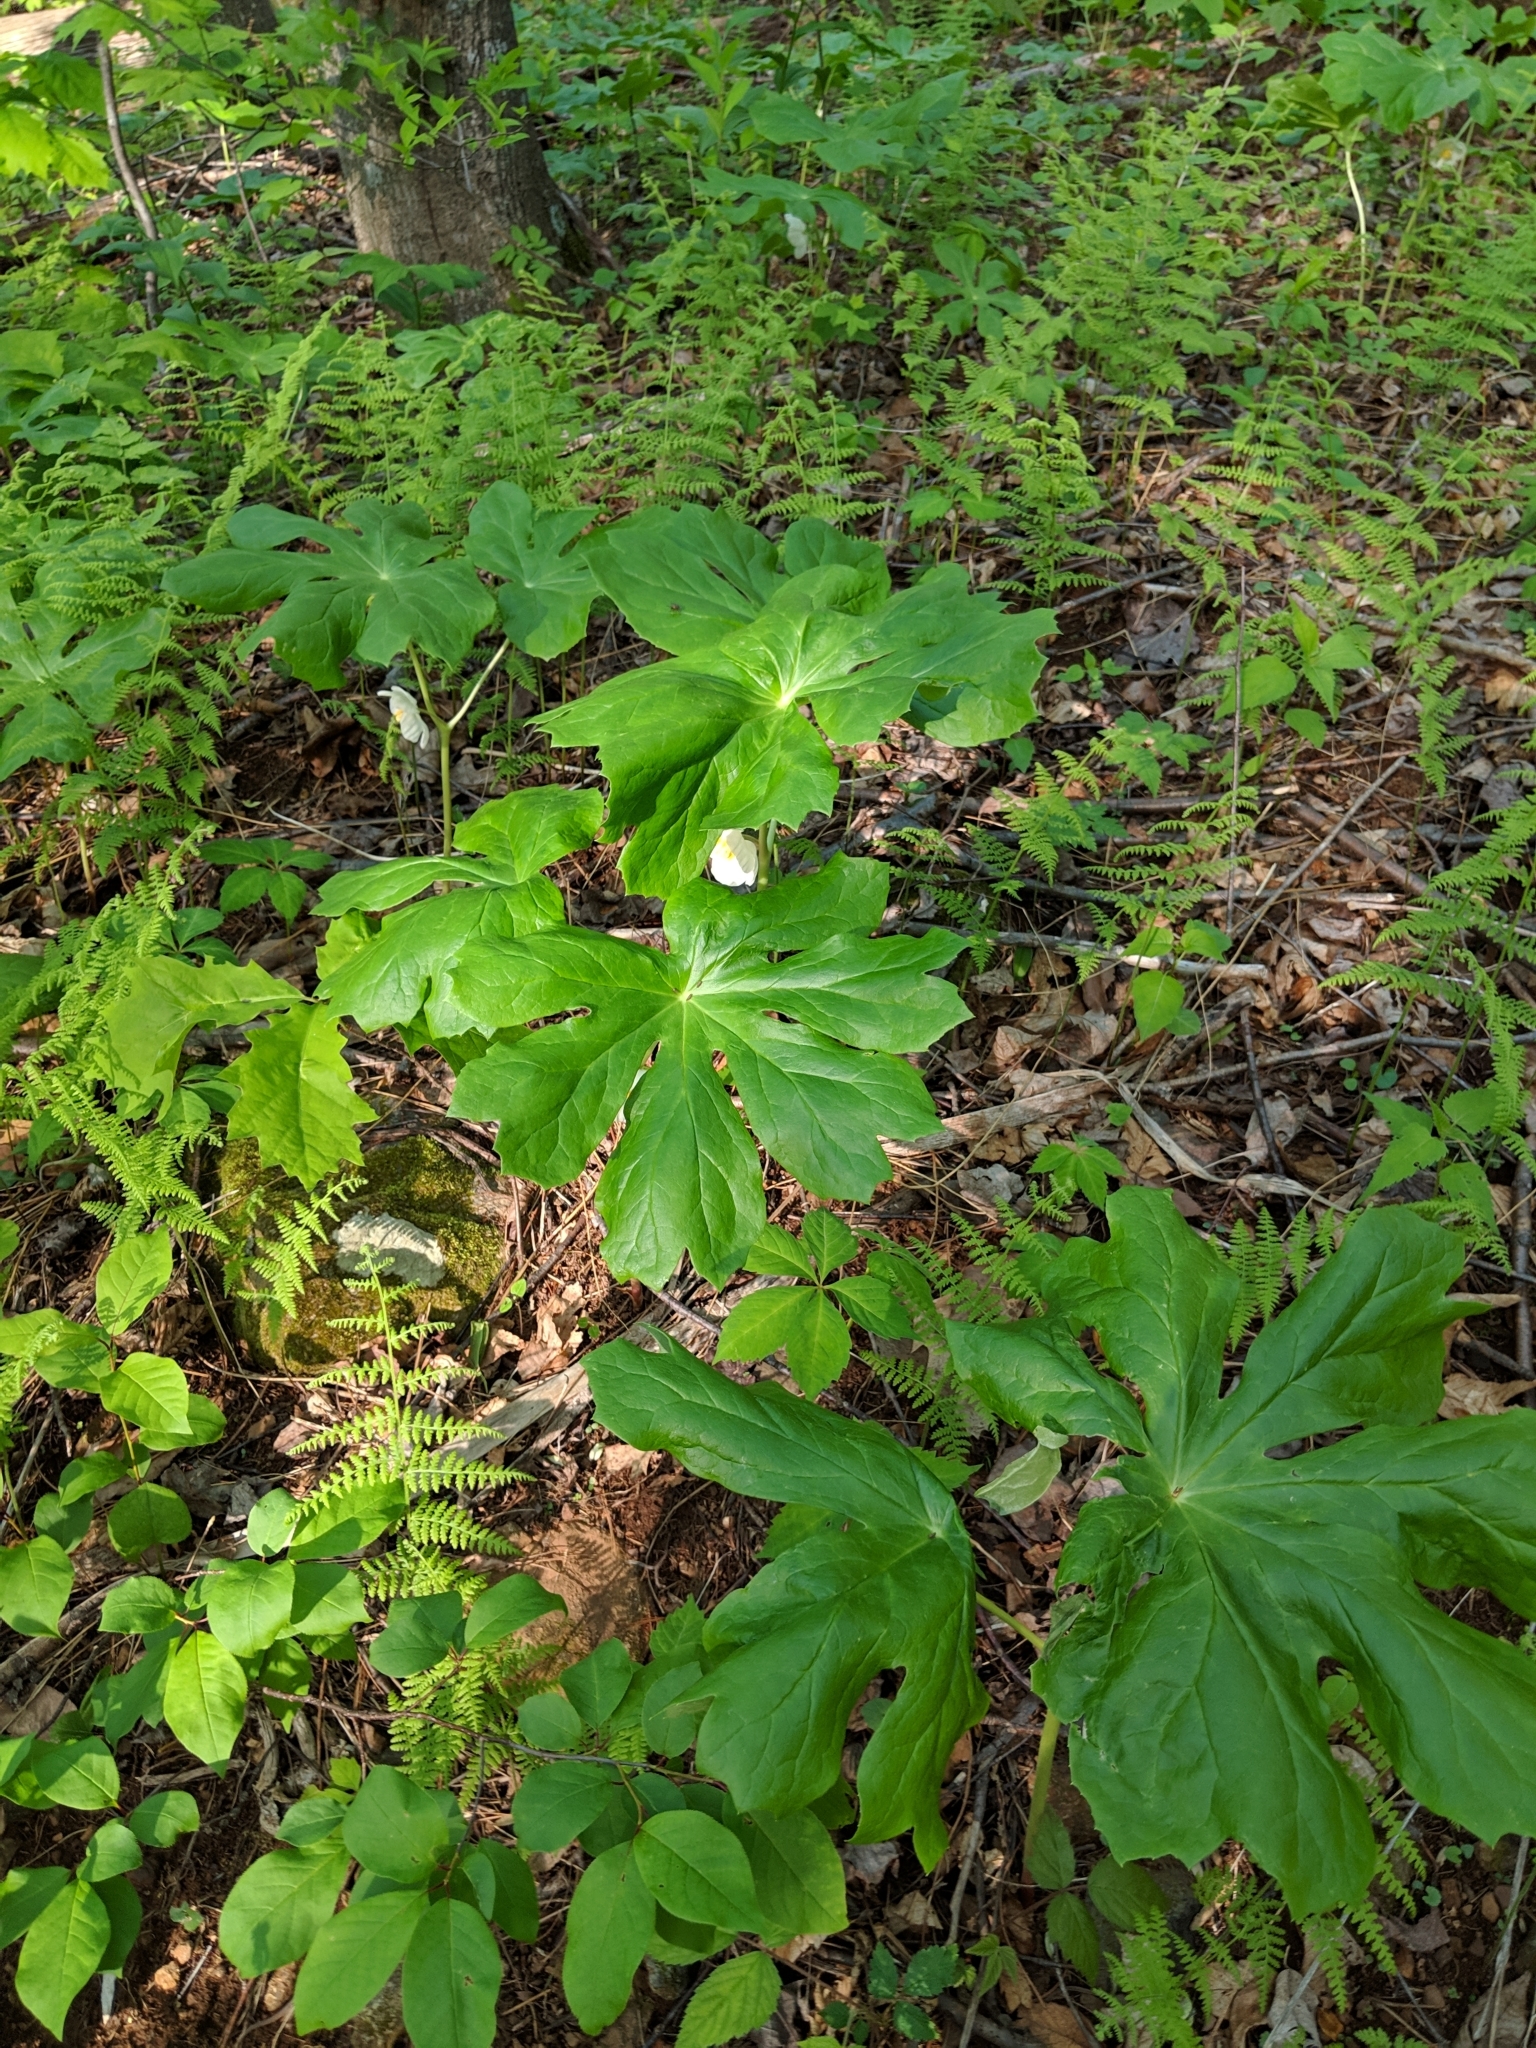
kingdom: Plantae
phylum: Tracheophyta
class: Magnoliopsida
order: Ranunculales
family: Berberidaceae
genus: Podophyllum
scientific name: Podophyllum peltatum
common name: Wild mandrake
